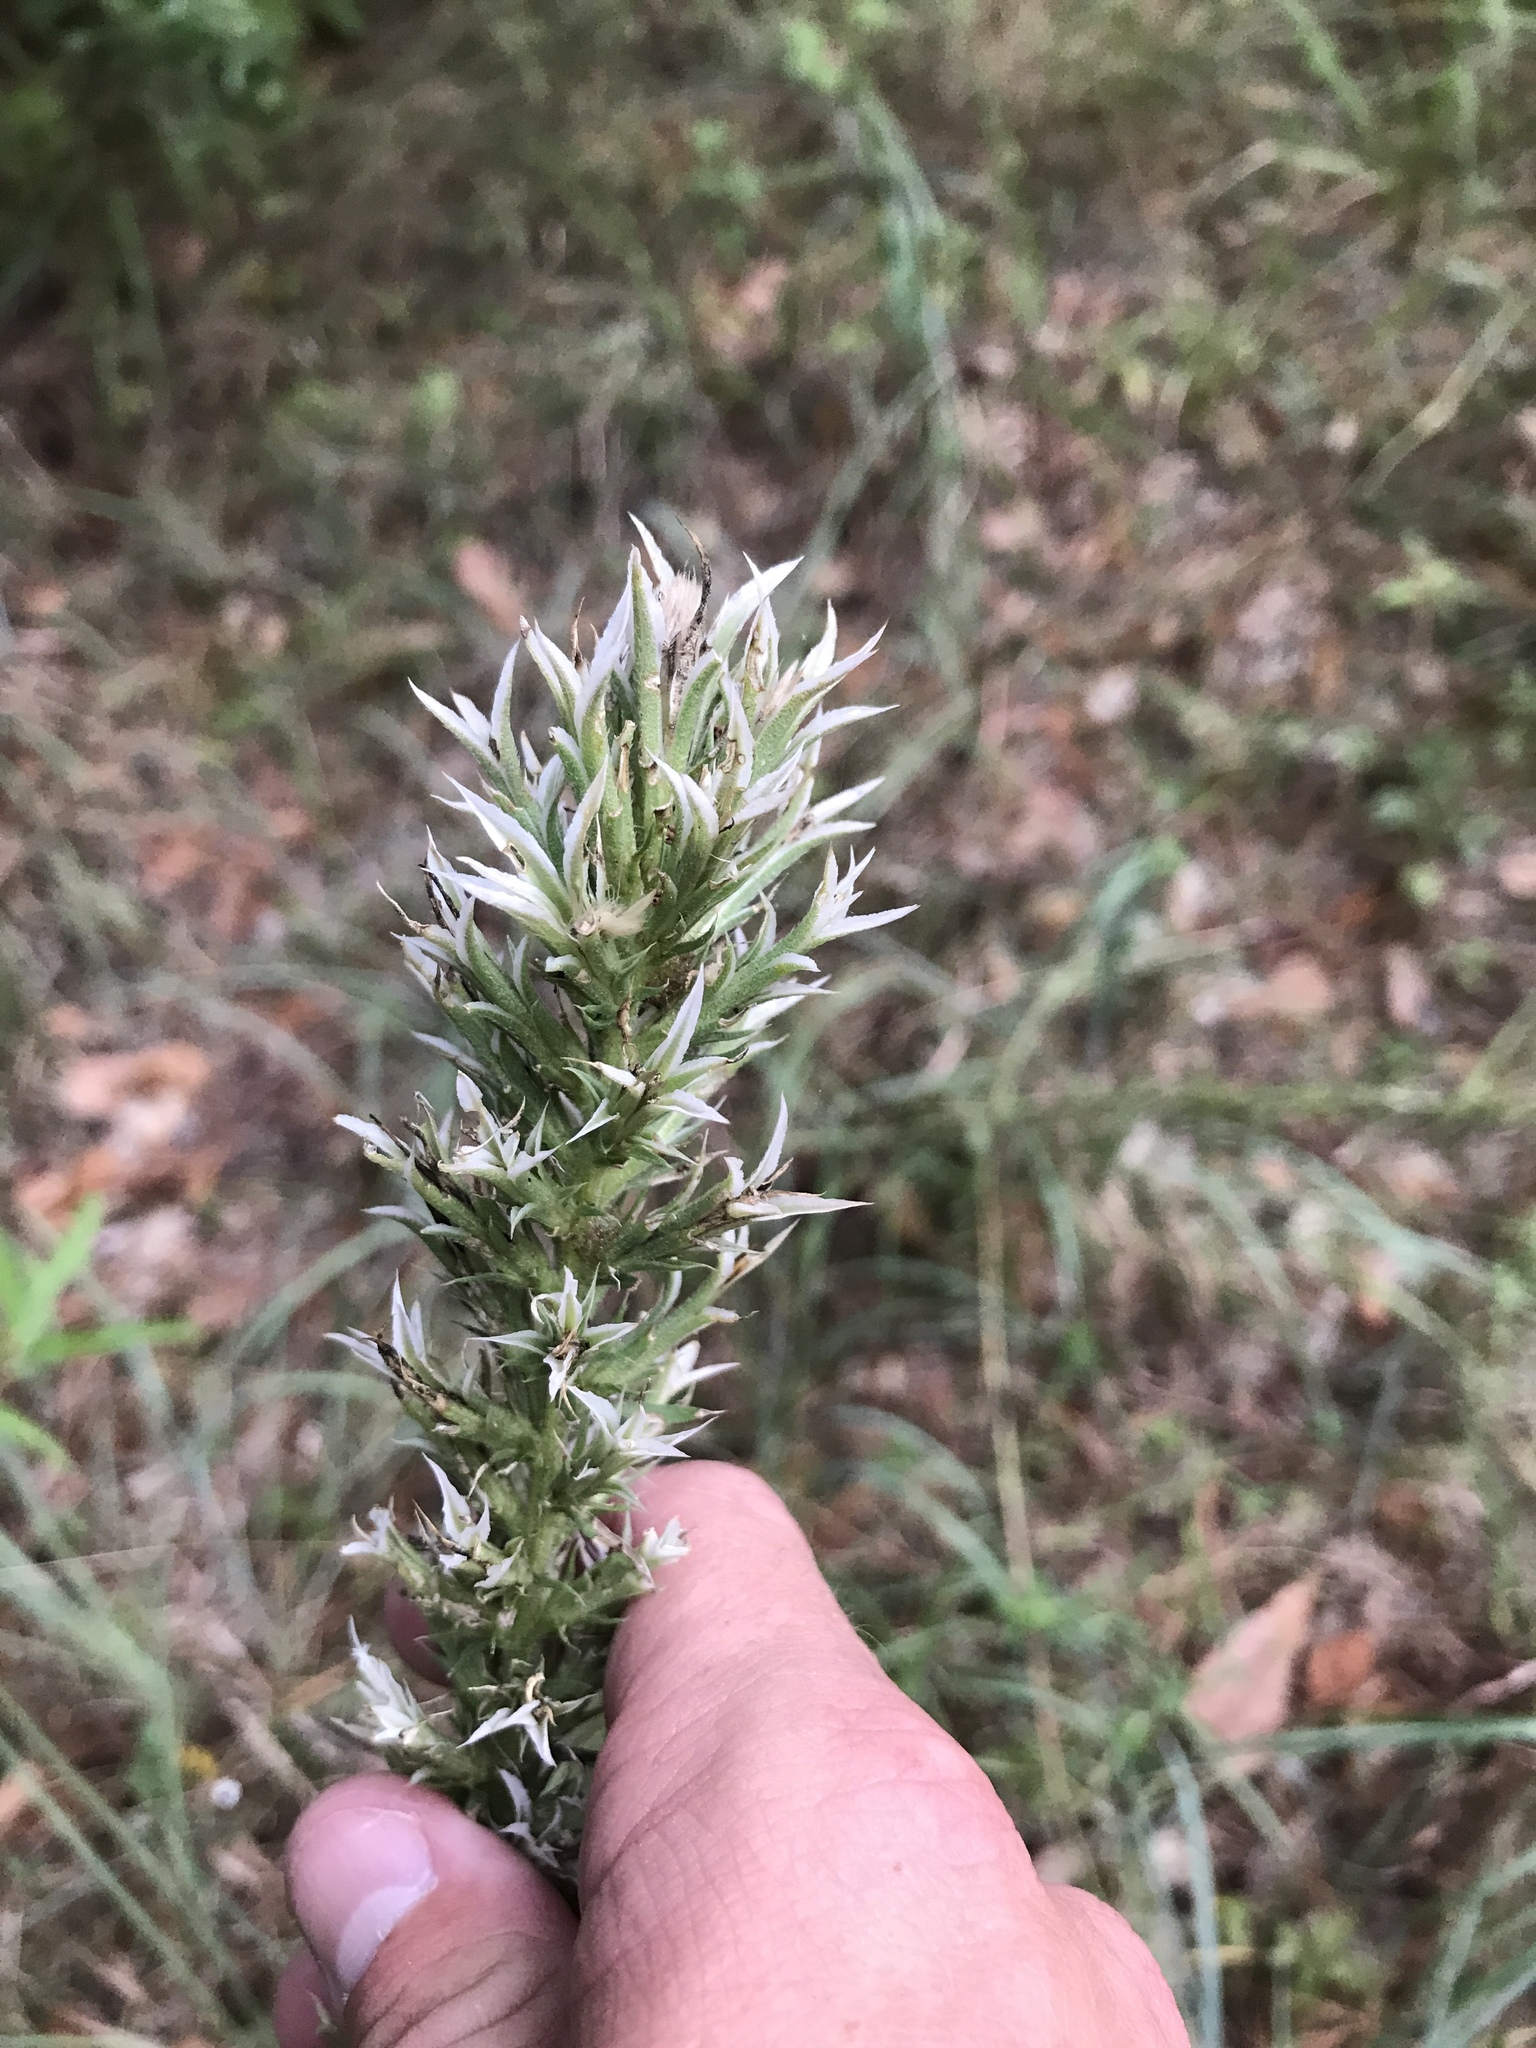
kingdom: Plantae
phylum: Tracheophyta
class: Magnoliopsida
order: Asterales
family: Asteraceae
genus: Liatris
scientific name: Liatris hesperelegans
